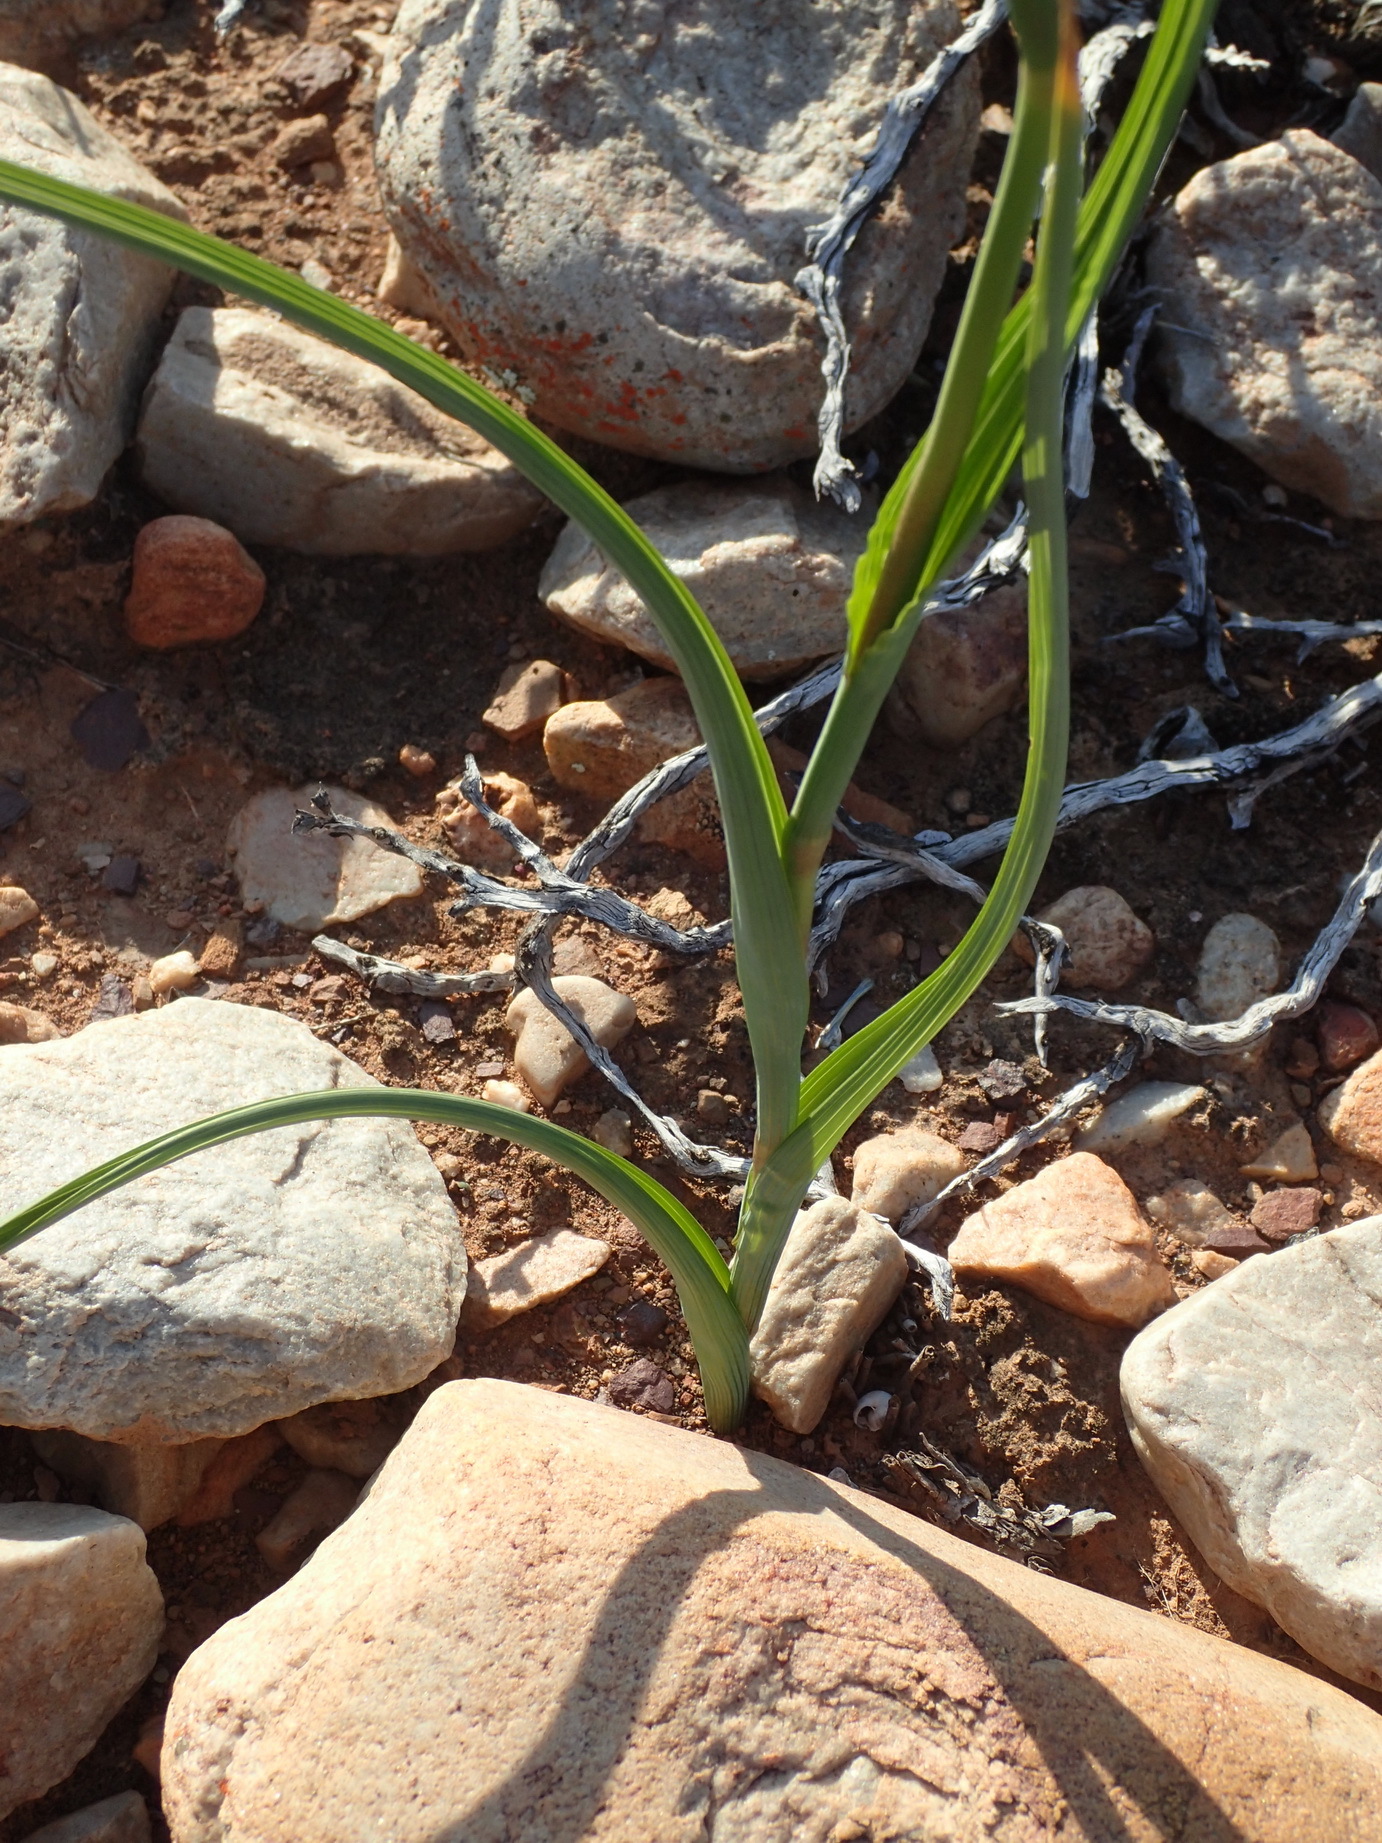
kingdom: Plantae
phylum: Tracheophyta
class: Liliopsida
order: Asparagales
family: Iridaceae
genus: Moraea
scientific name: Moraea polystachya
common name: Blue-tulip
